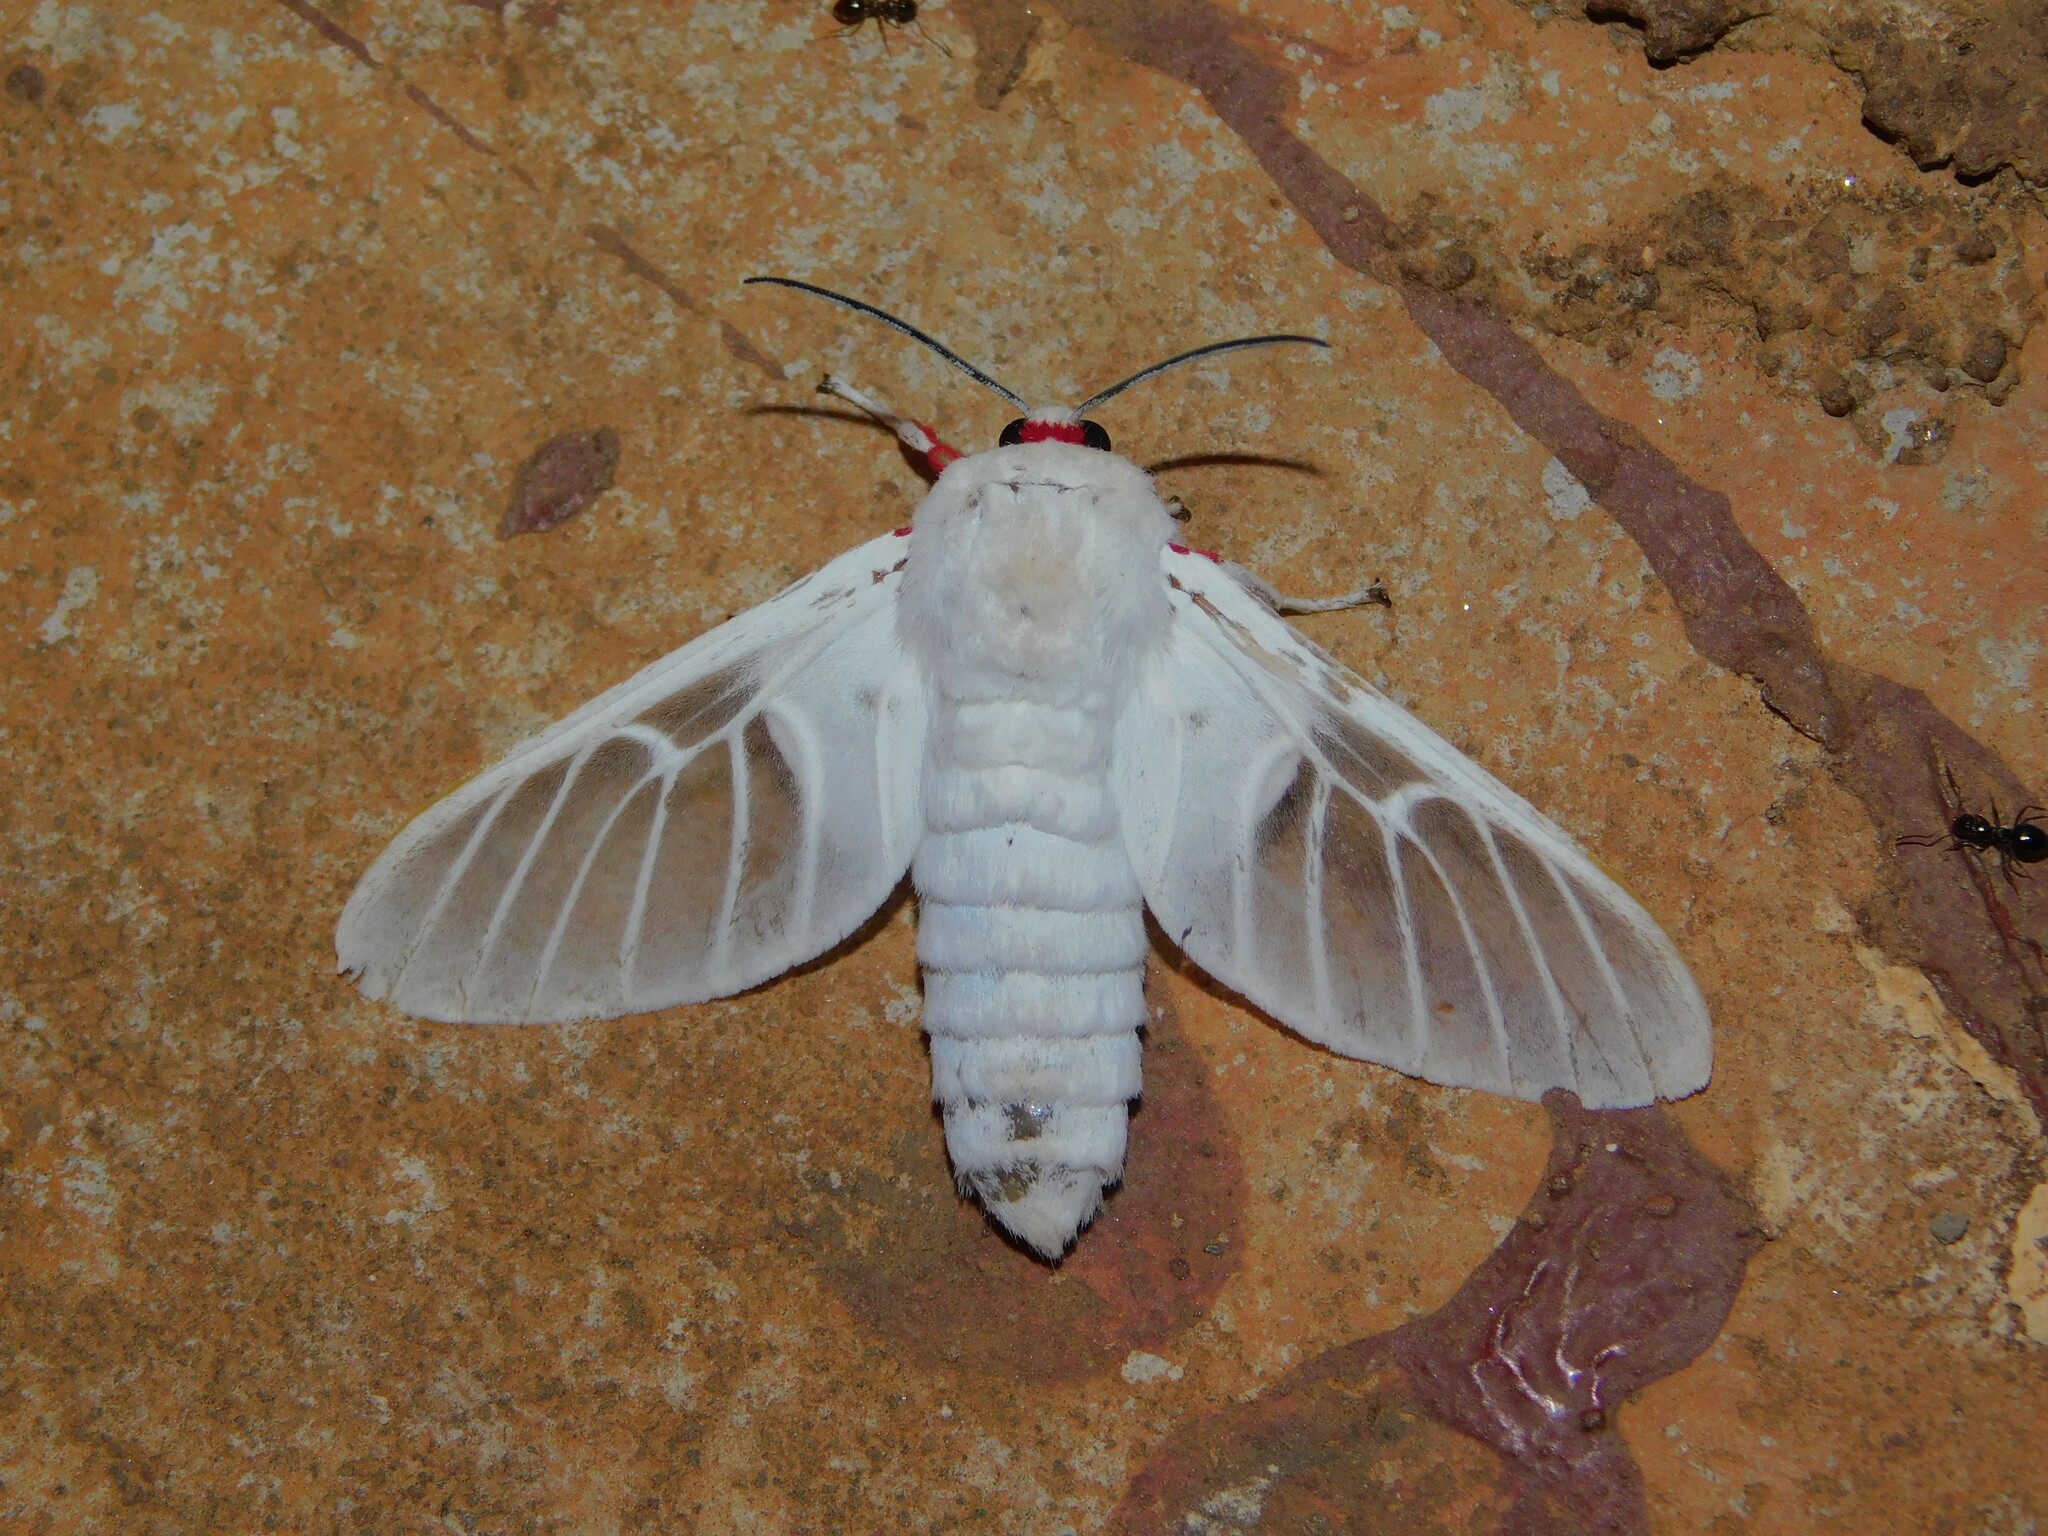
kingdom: Animalia
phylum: Arthropoda
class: Insecta
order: Lepidoptera
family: Erebidae
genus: Balacra
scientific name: Balacra pulchra
